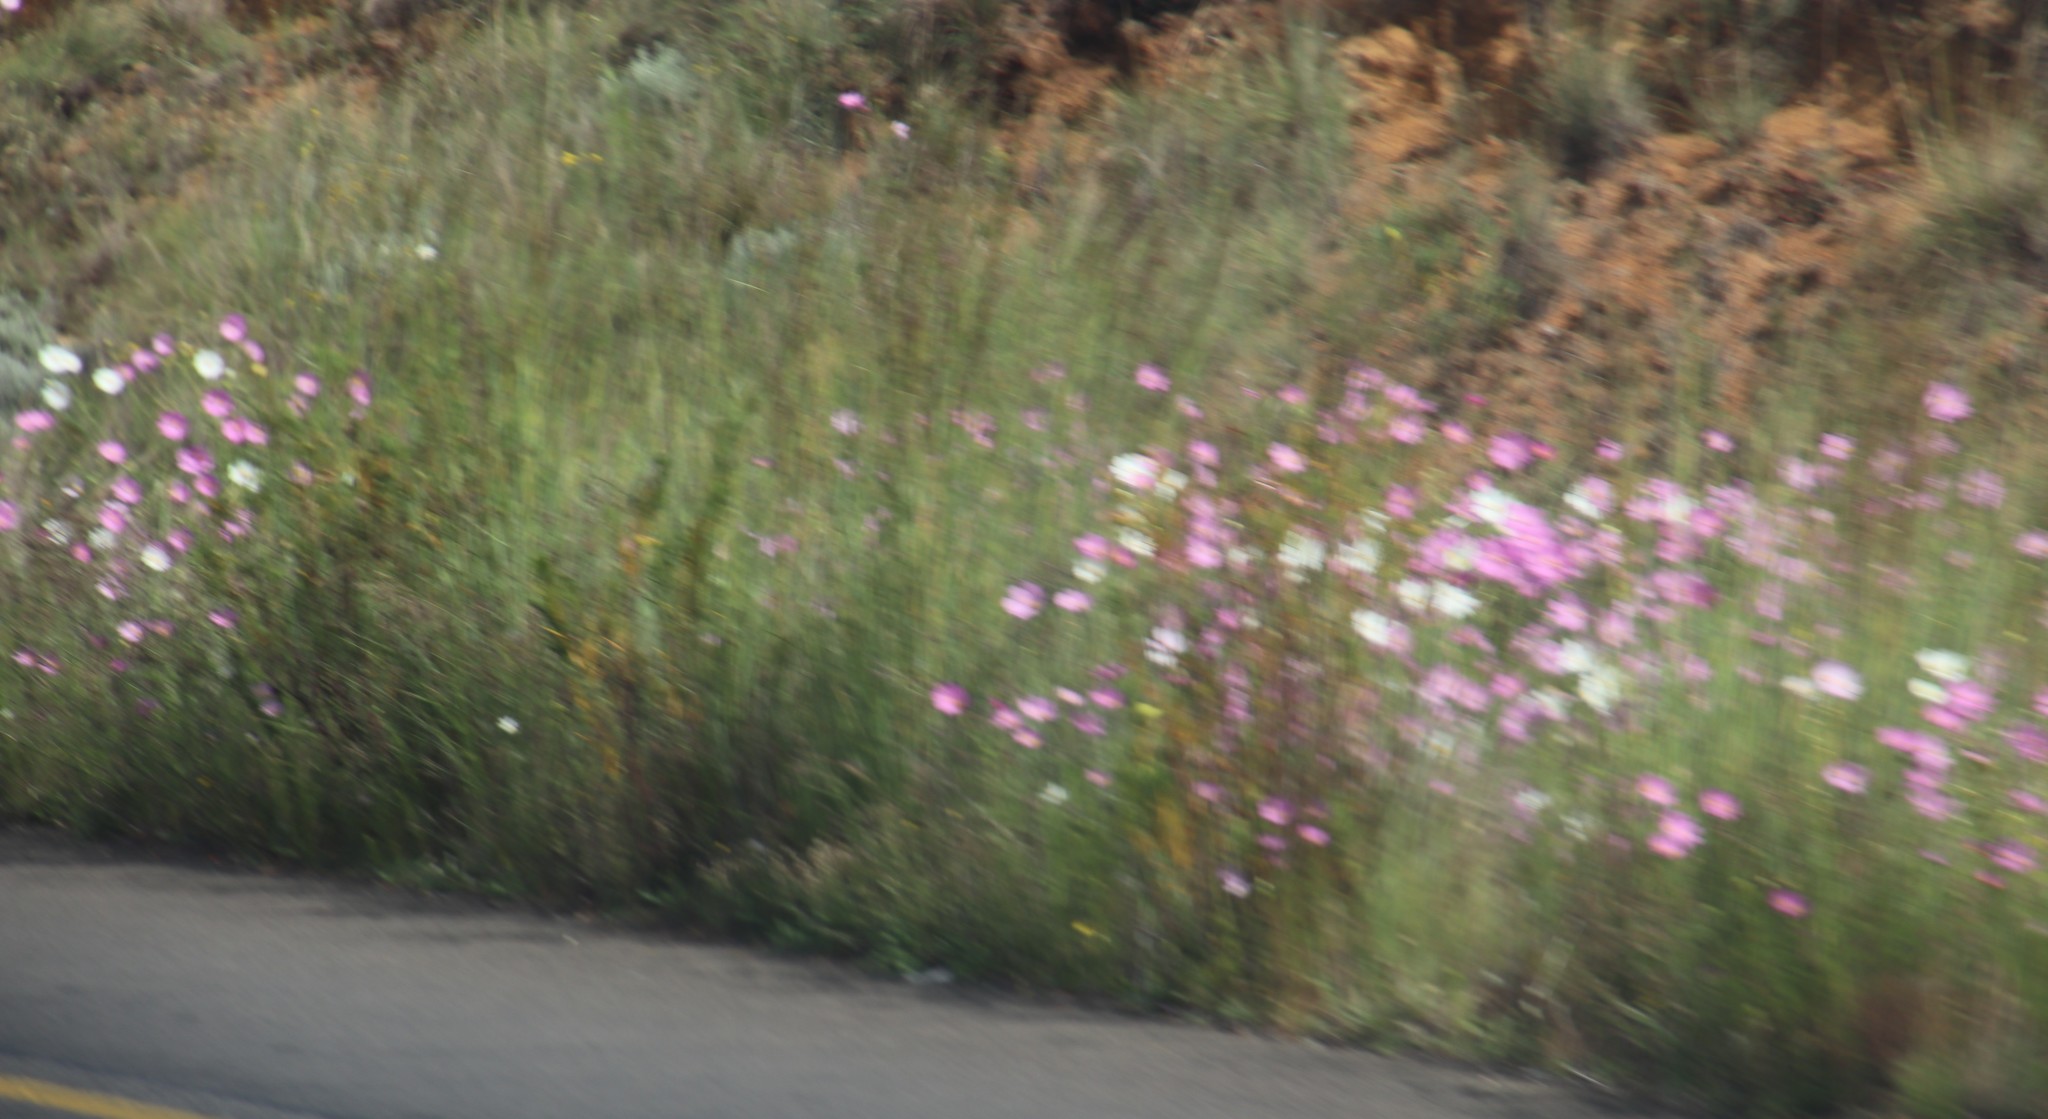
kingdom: Plantae
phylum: Tracheophyta
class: Magnoliopsida
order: Asterales
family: Asteraceae
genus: Cosmos
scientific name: Cosmos bipinnatus
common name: Garden cosmos
